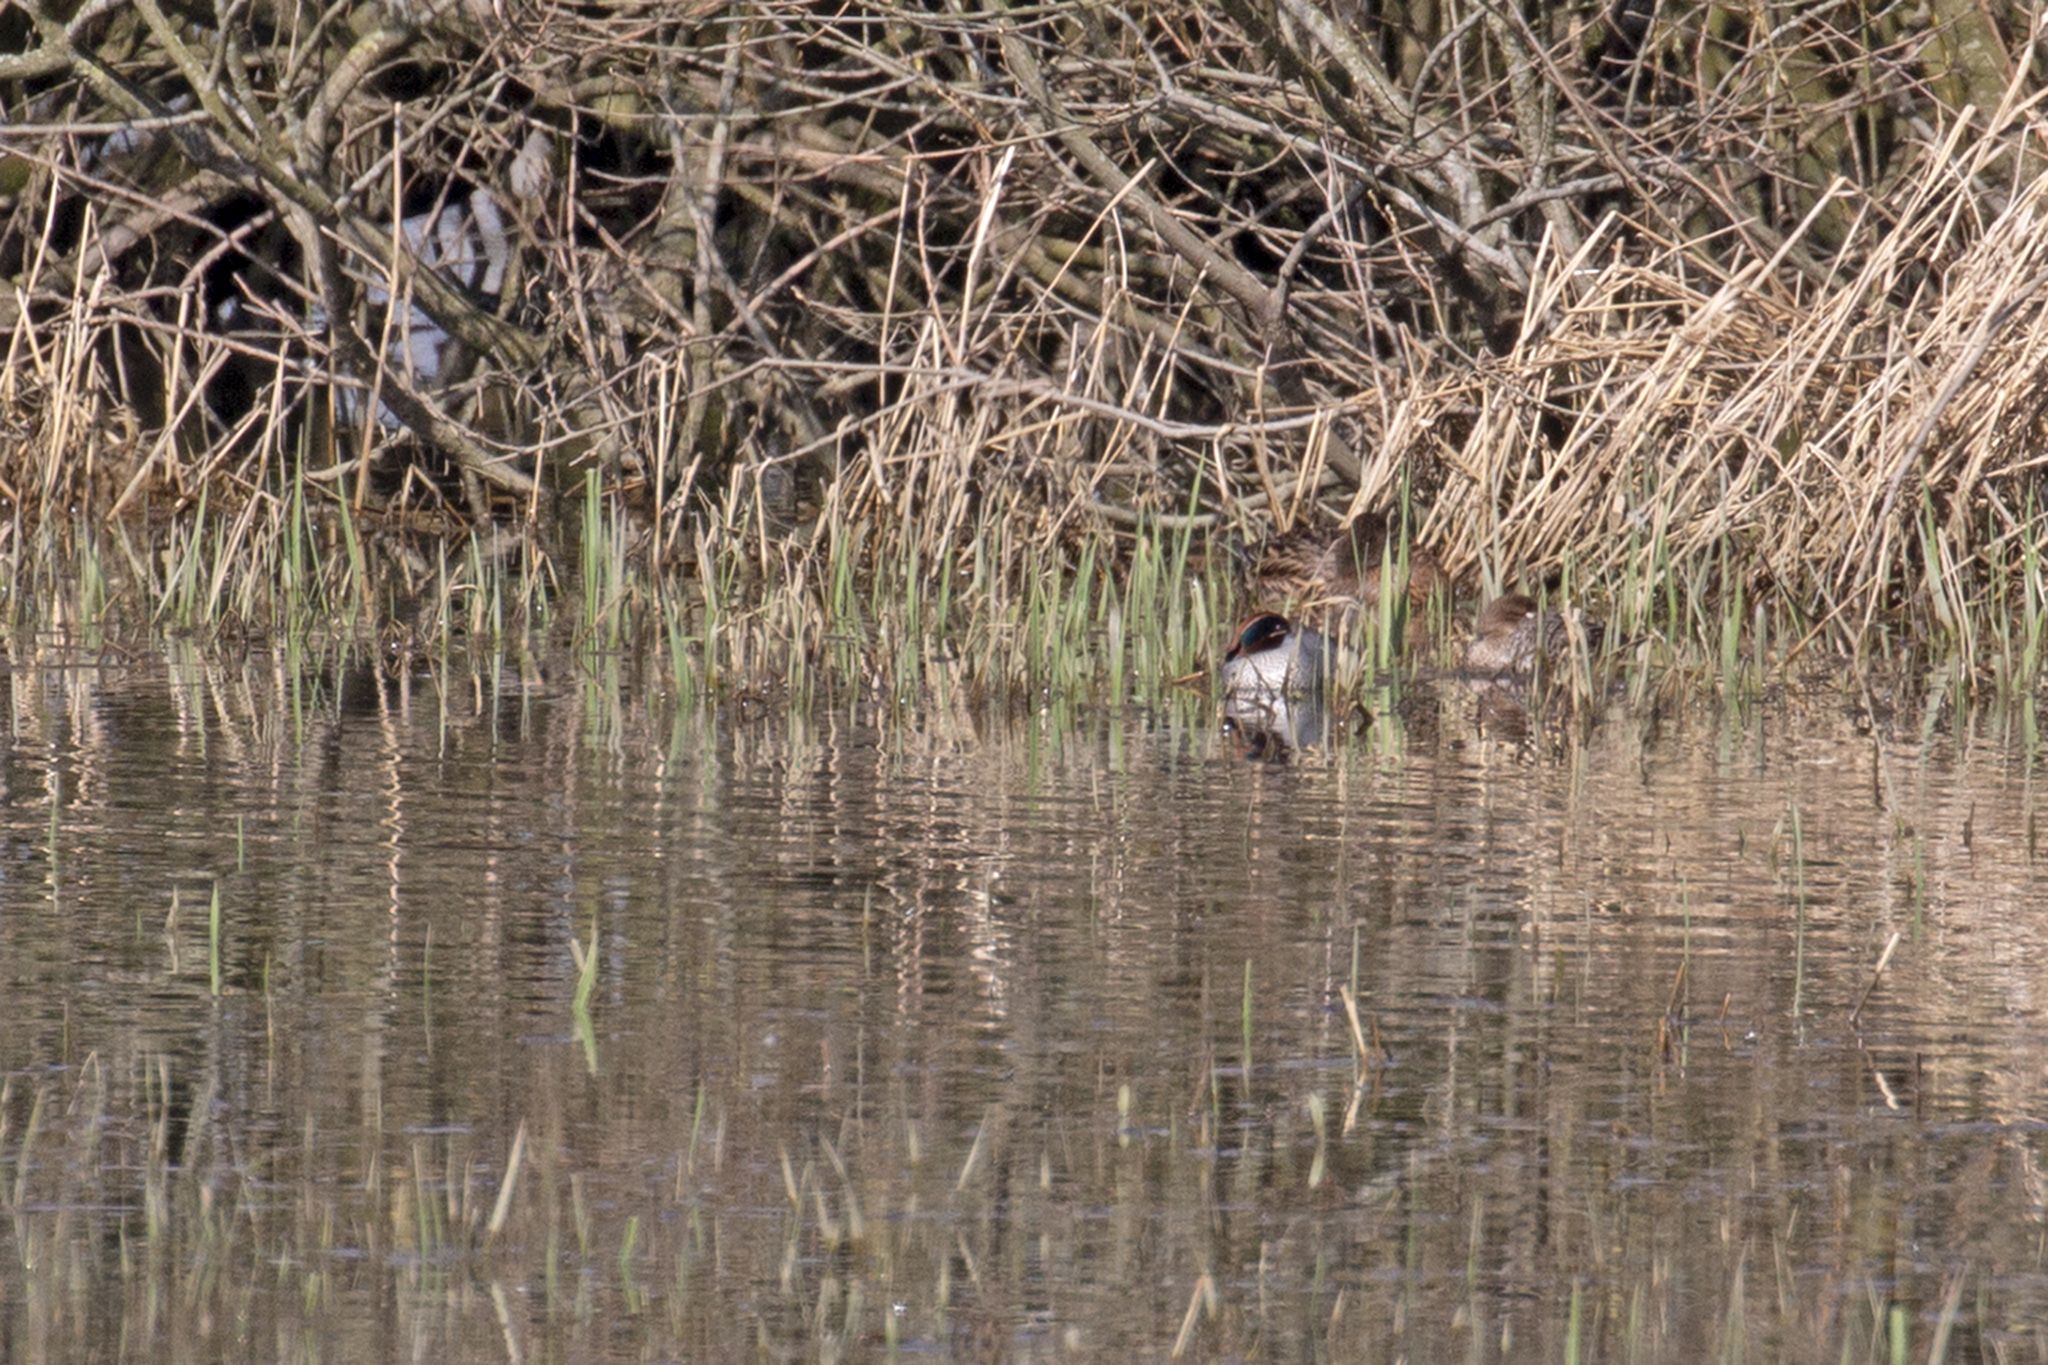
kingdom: Animalia
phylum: Chordata
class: Aves
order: Anseriformes
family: Anatidae
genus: Anas
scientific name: Anas crecca
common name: Eurasian teal
